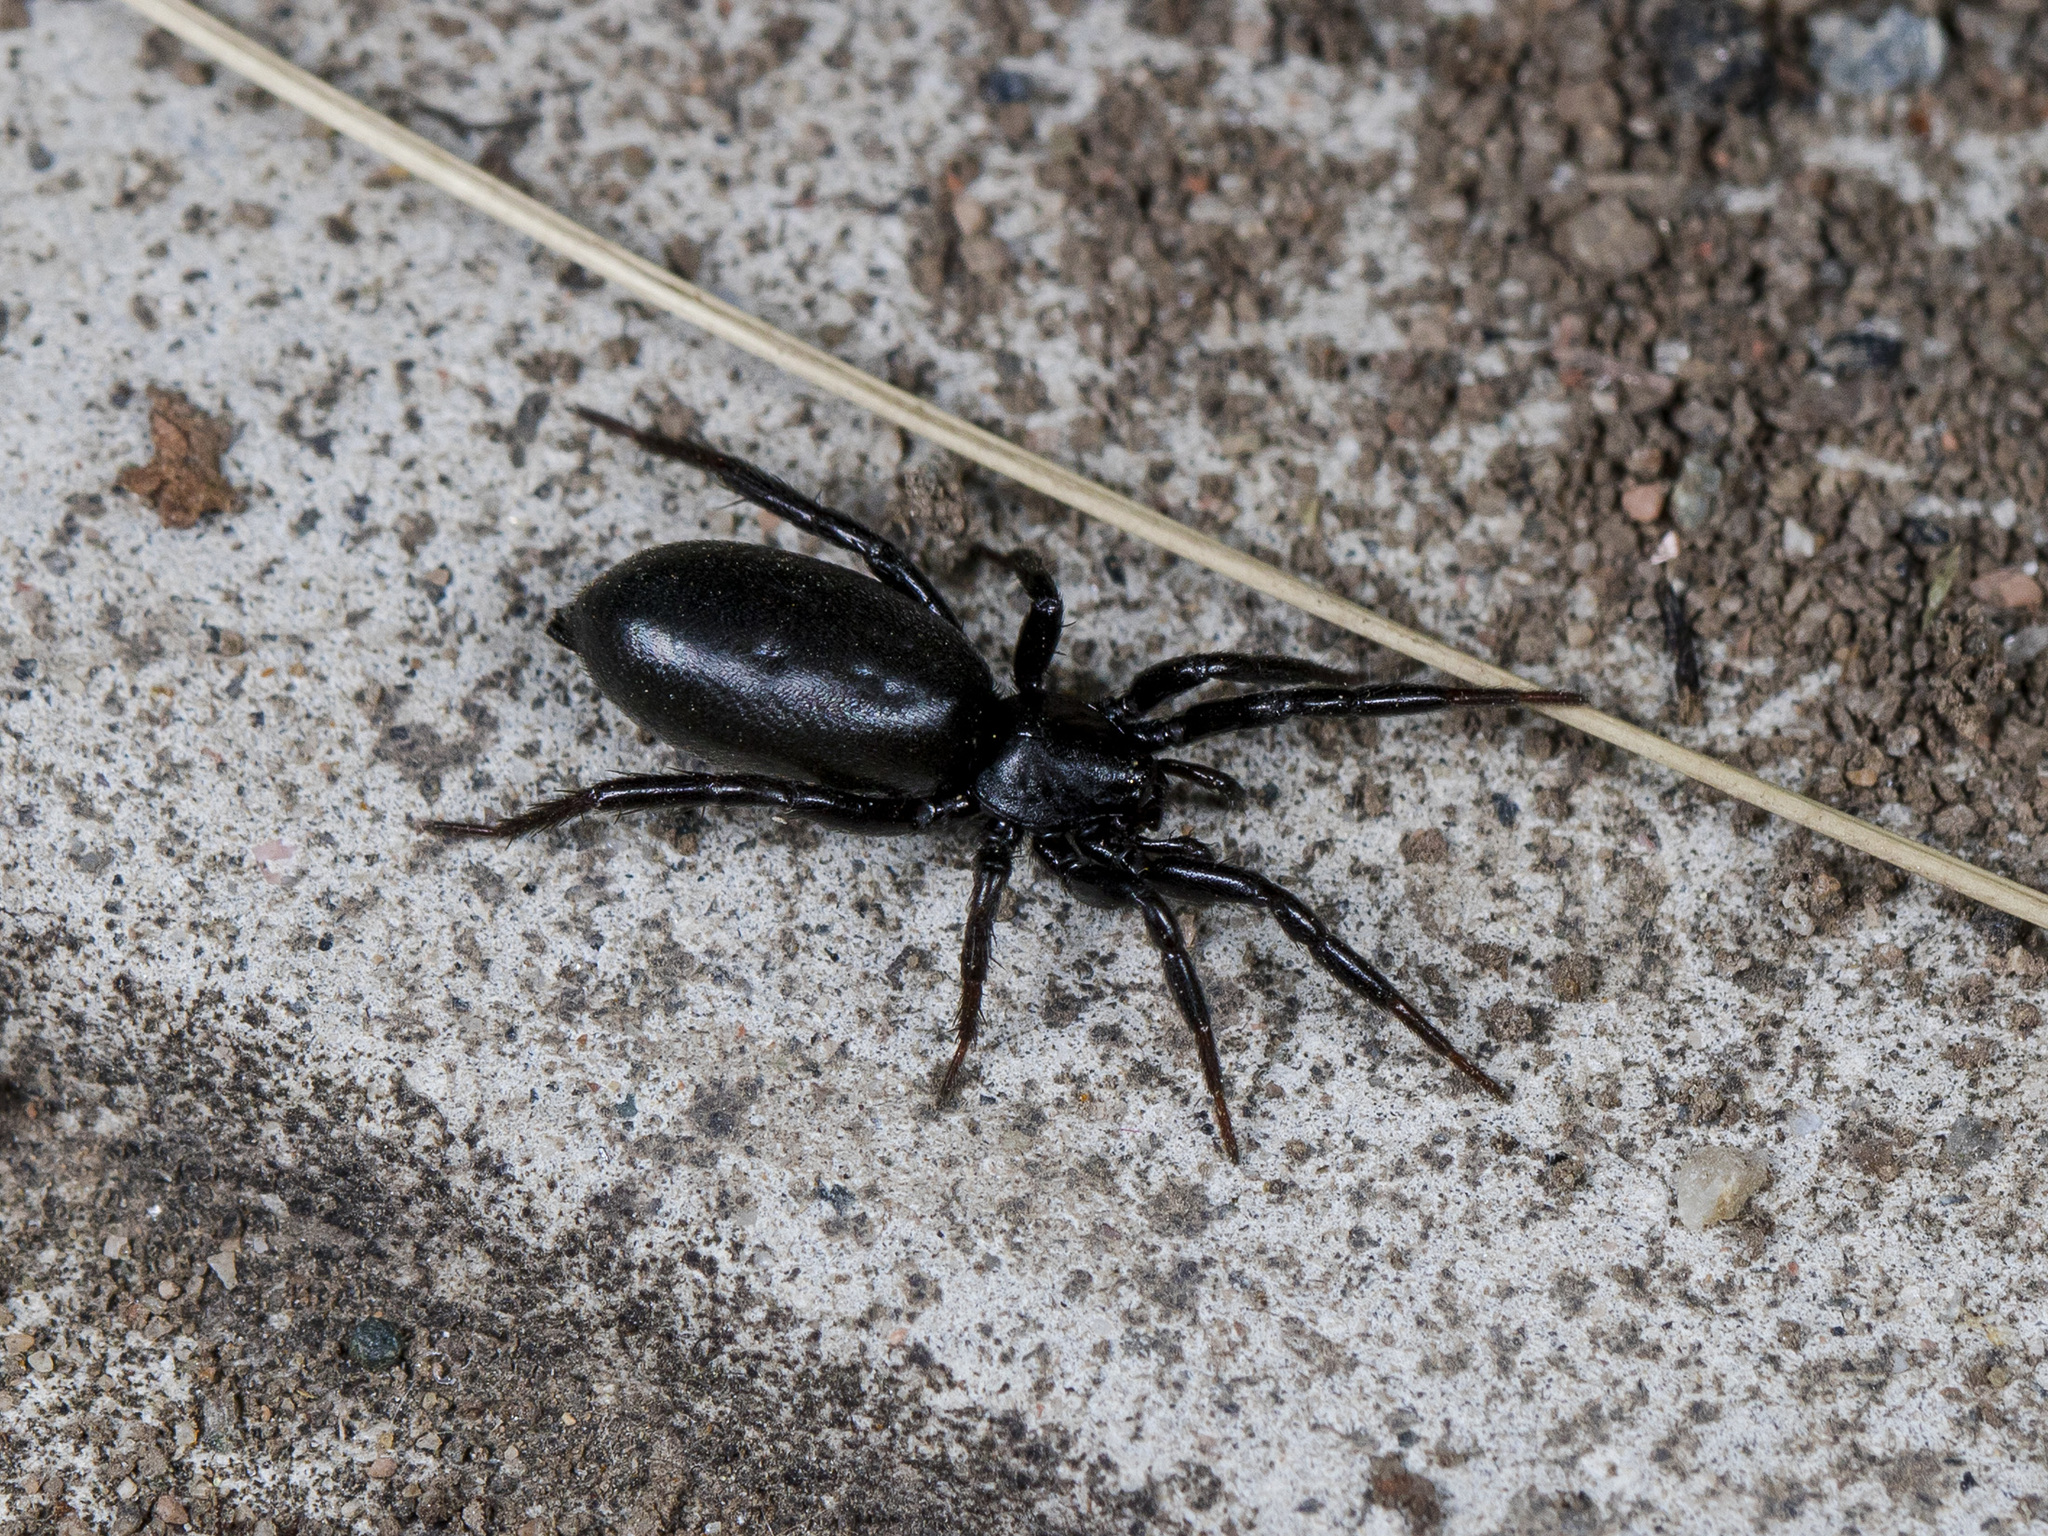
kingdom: Animalia
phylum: Arthropoda
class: Arachnida
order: Araneae
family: Gnaphosidae
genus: Drassyllus
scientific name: Drassyllus praeficus
